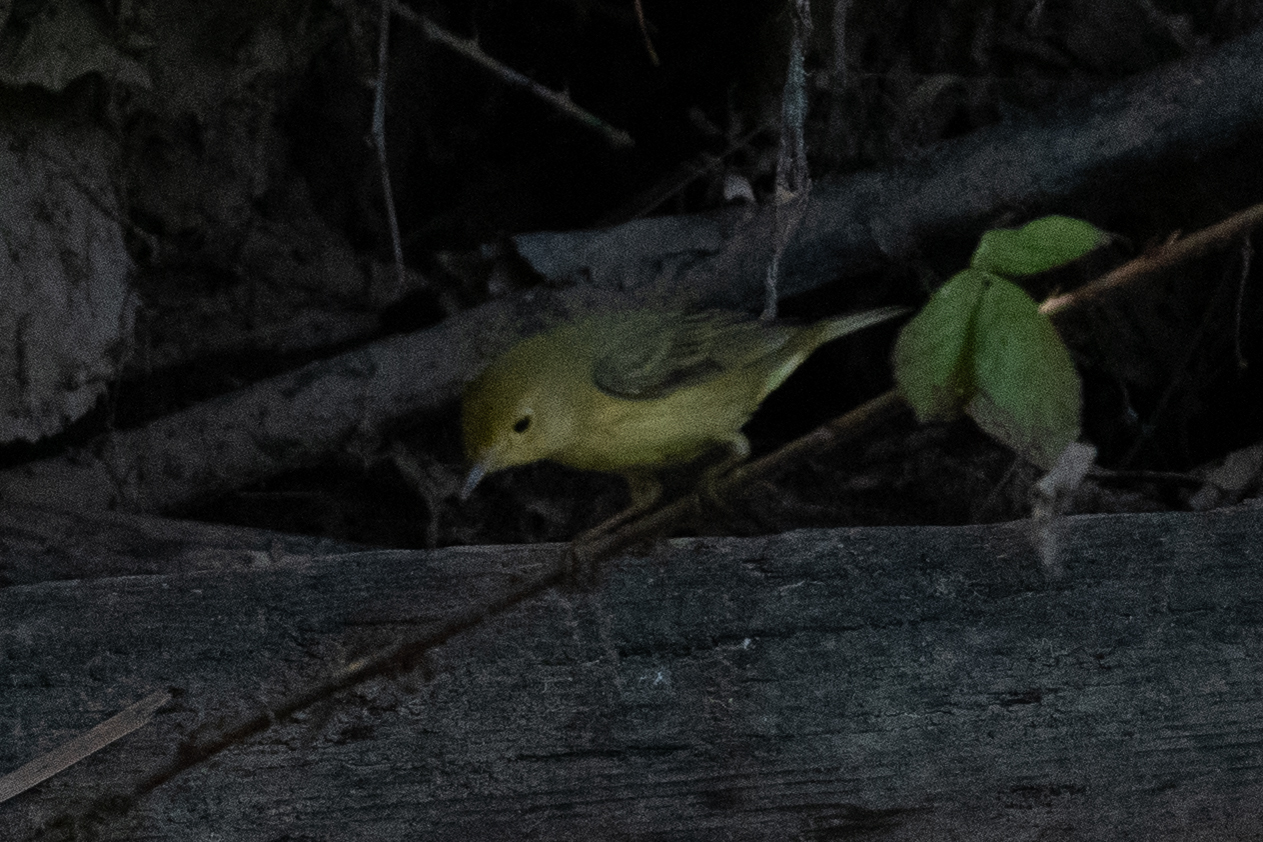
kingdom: Animalia
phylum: Chordata
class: Aves
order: Passeriformes
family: Parulidae
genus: Setophaga
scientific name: Setophaga petechia
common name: Yellow warbler
